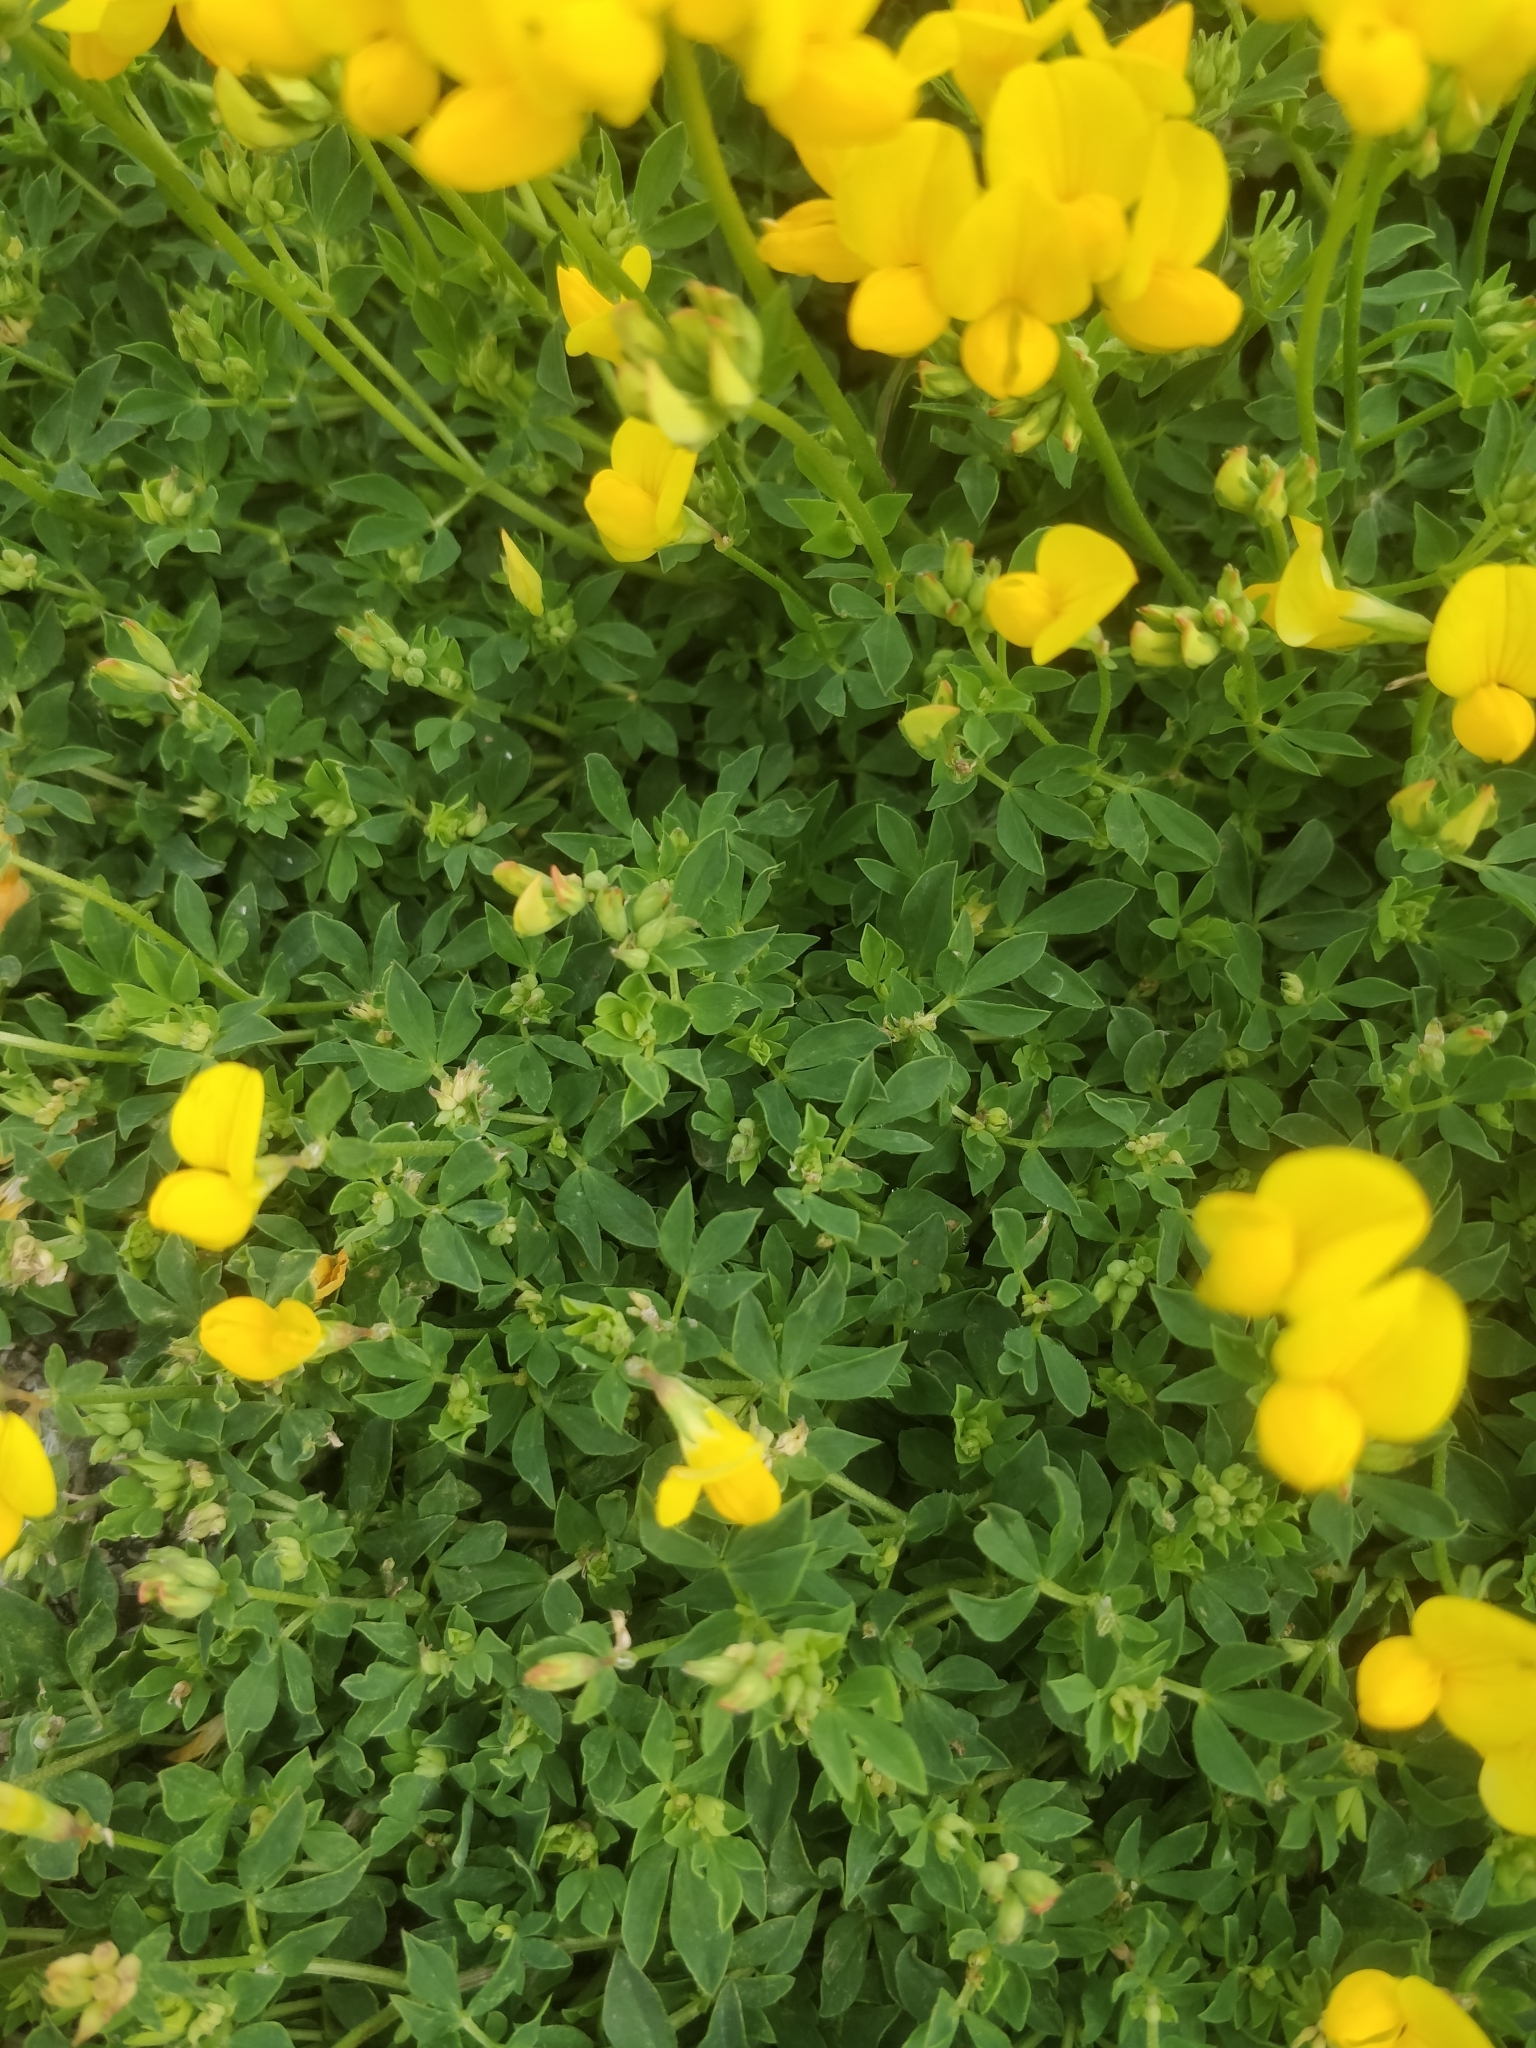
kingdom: Plantae
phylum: Tracheophyta
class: Magnoliopsida
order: Fabales
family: Fabaceae
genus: Lotus
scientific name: Lotus corniculatus
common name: Common bird's-foot-trefoil
